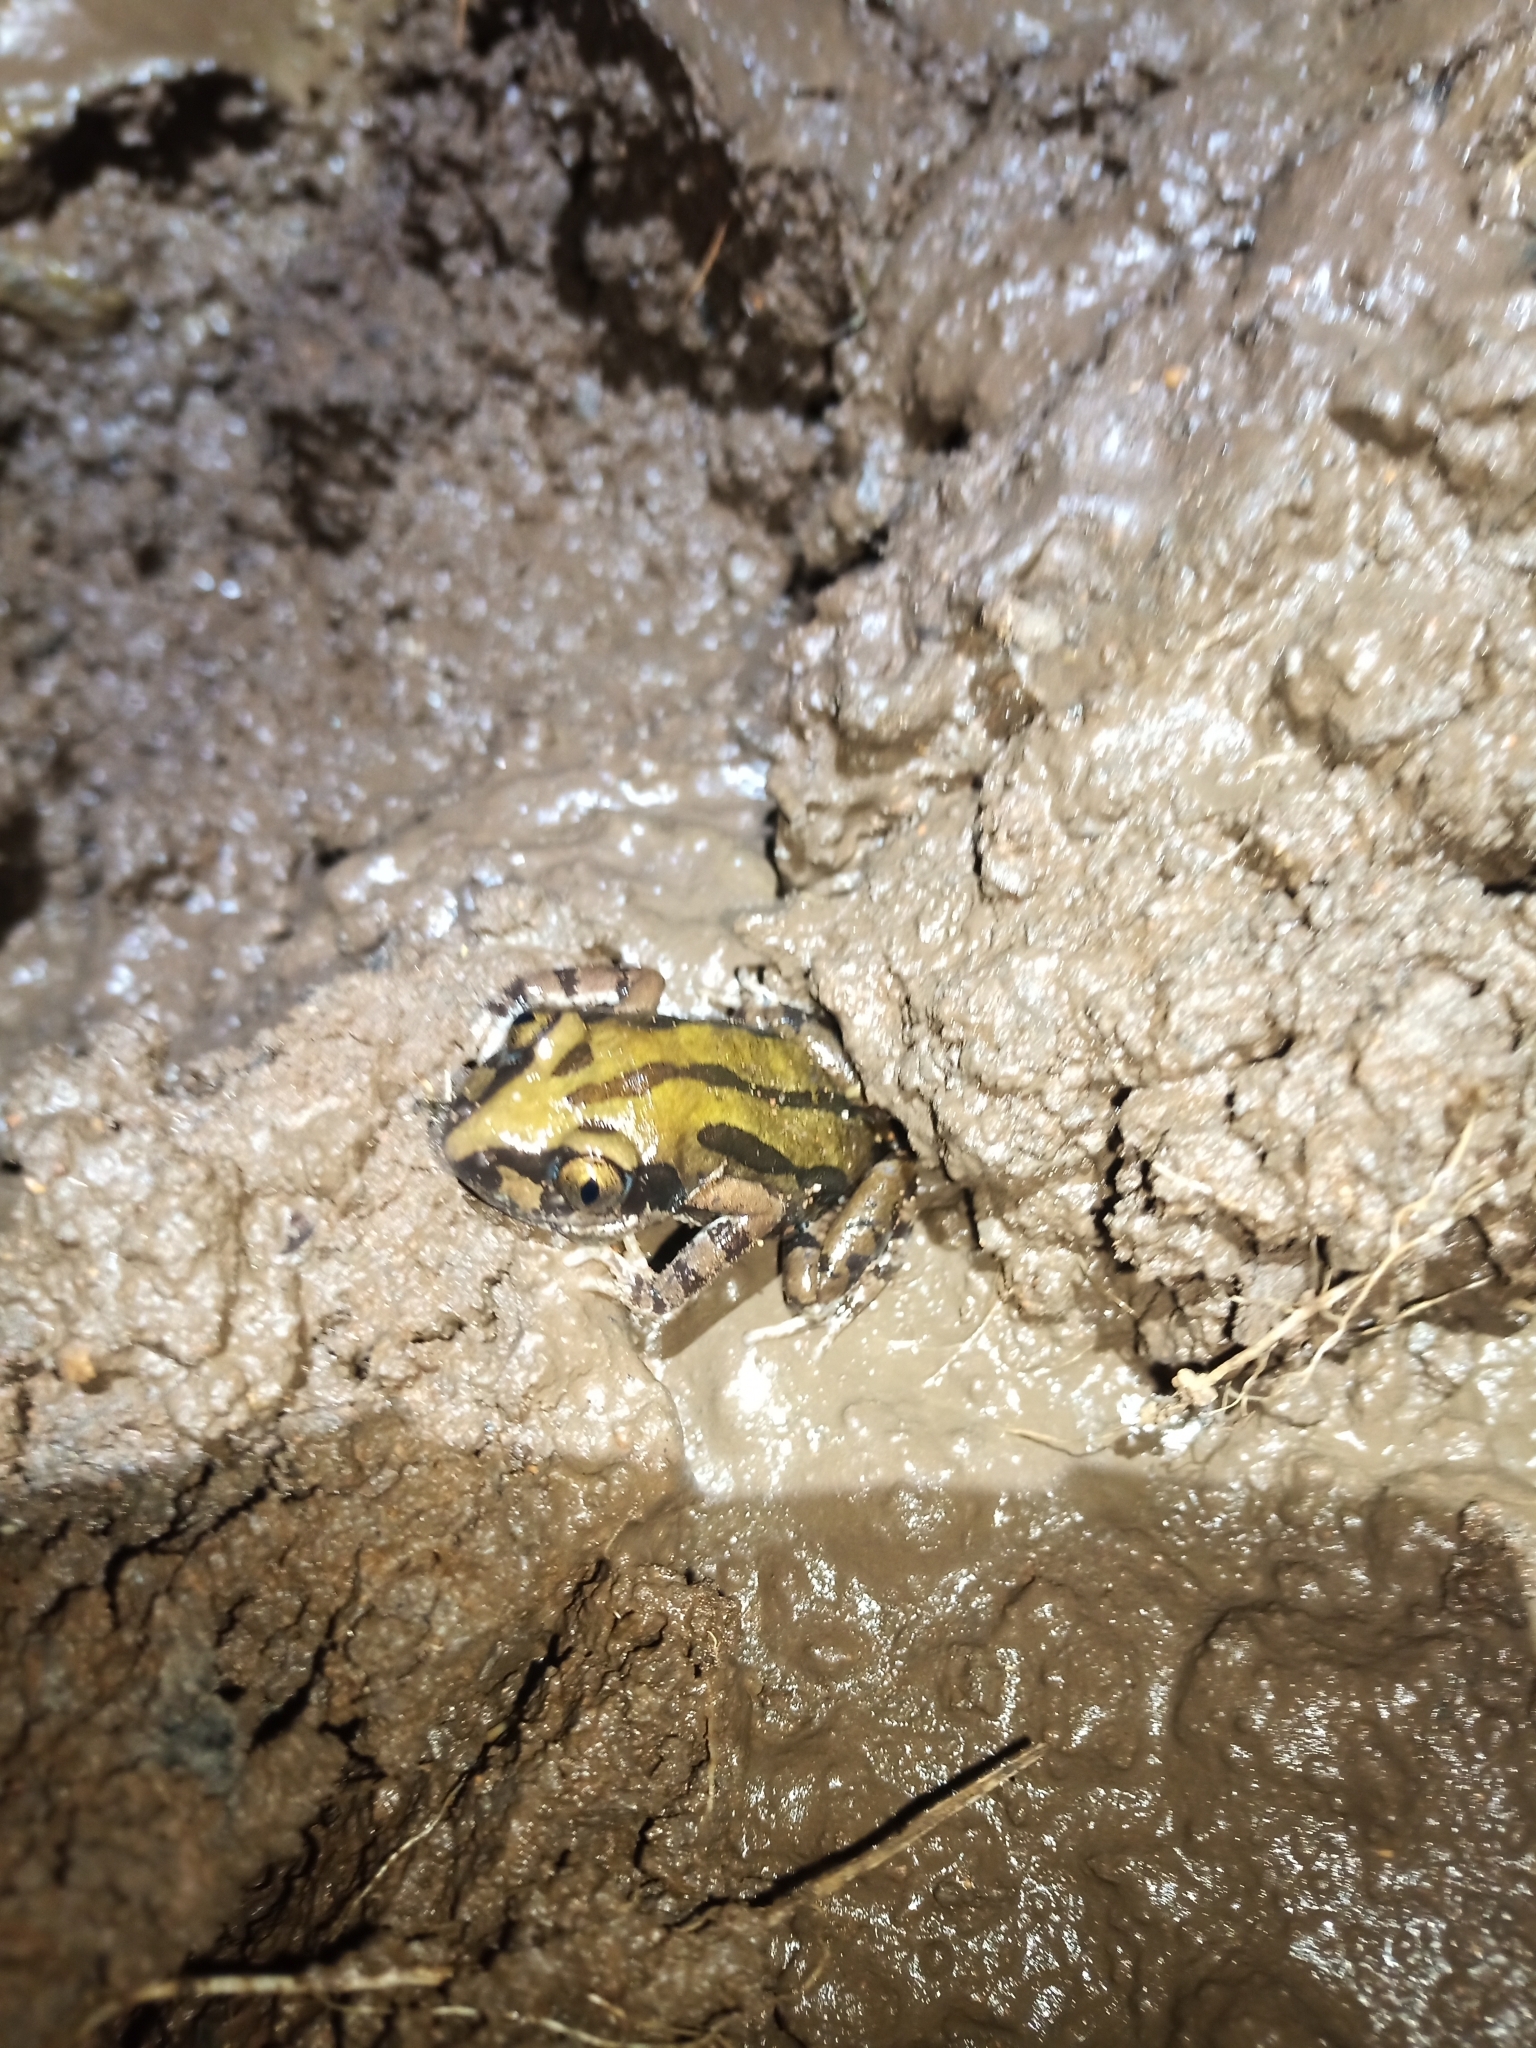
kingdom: Animalia
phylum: Chordata
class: Amphibia
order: Anura
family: Hyperoliidae
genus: Kassina
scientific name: Kassina senegalensis
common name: Senegal land frog
